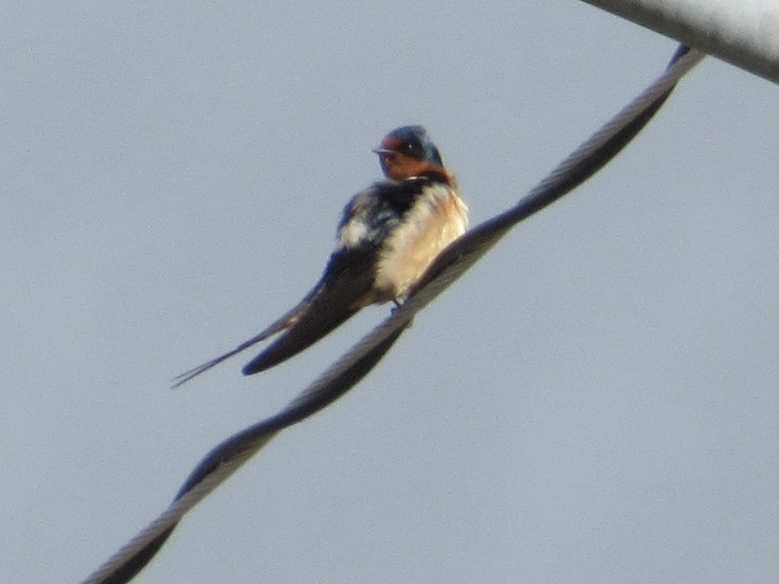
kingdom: Animalia
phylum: Chordata
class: Aves
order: Passeriformes
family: Hirundinidae
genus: Hirundo
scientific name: Hirundo rustica
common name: Barn swallow
